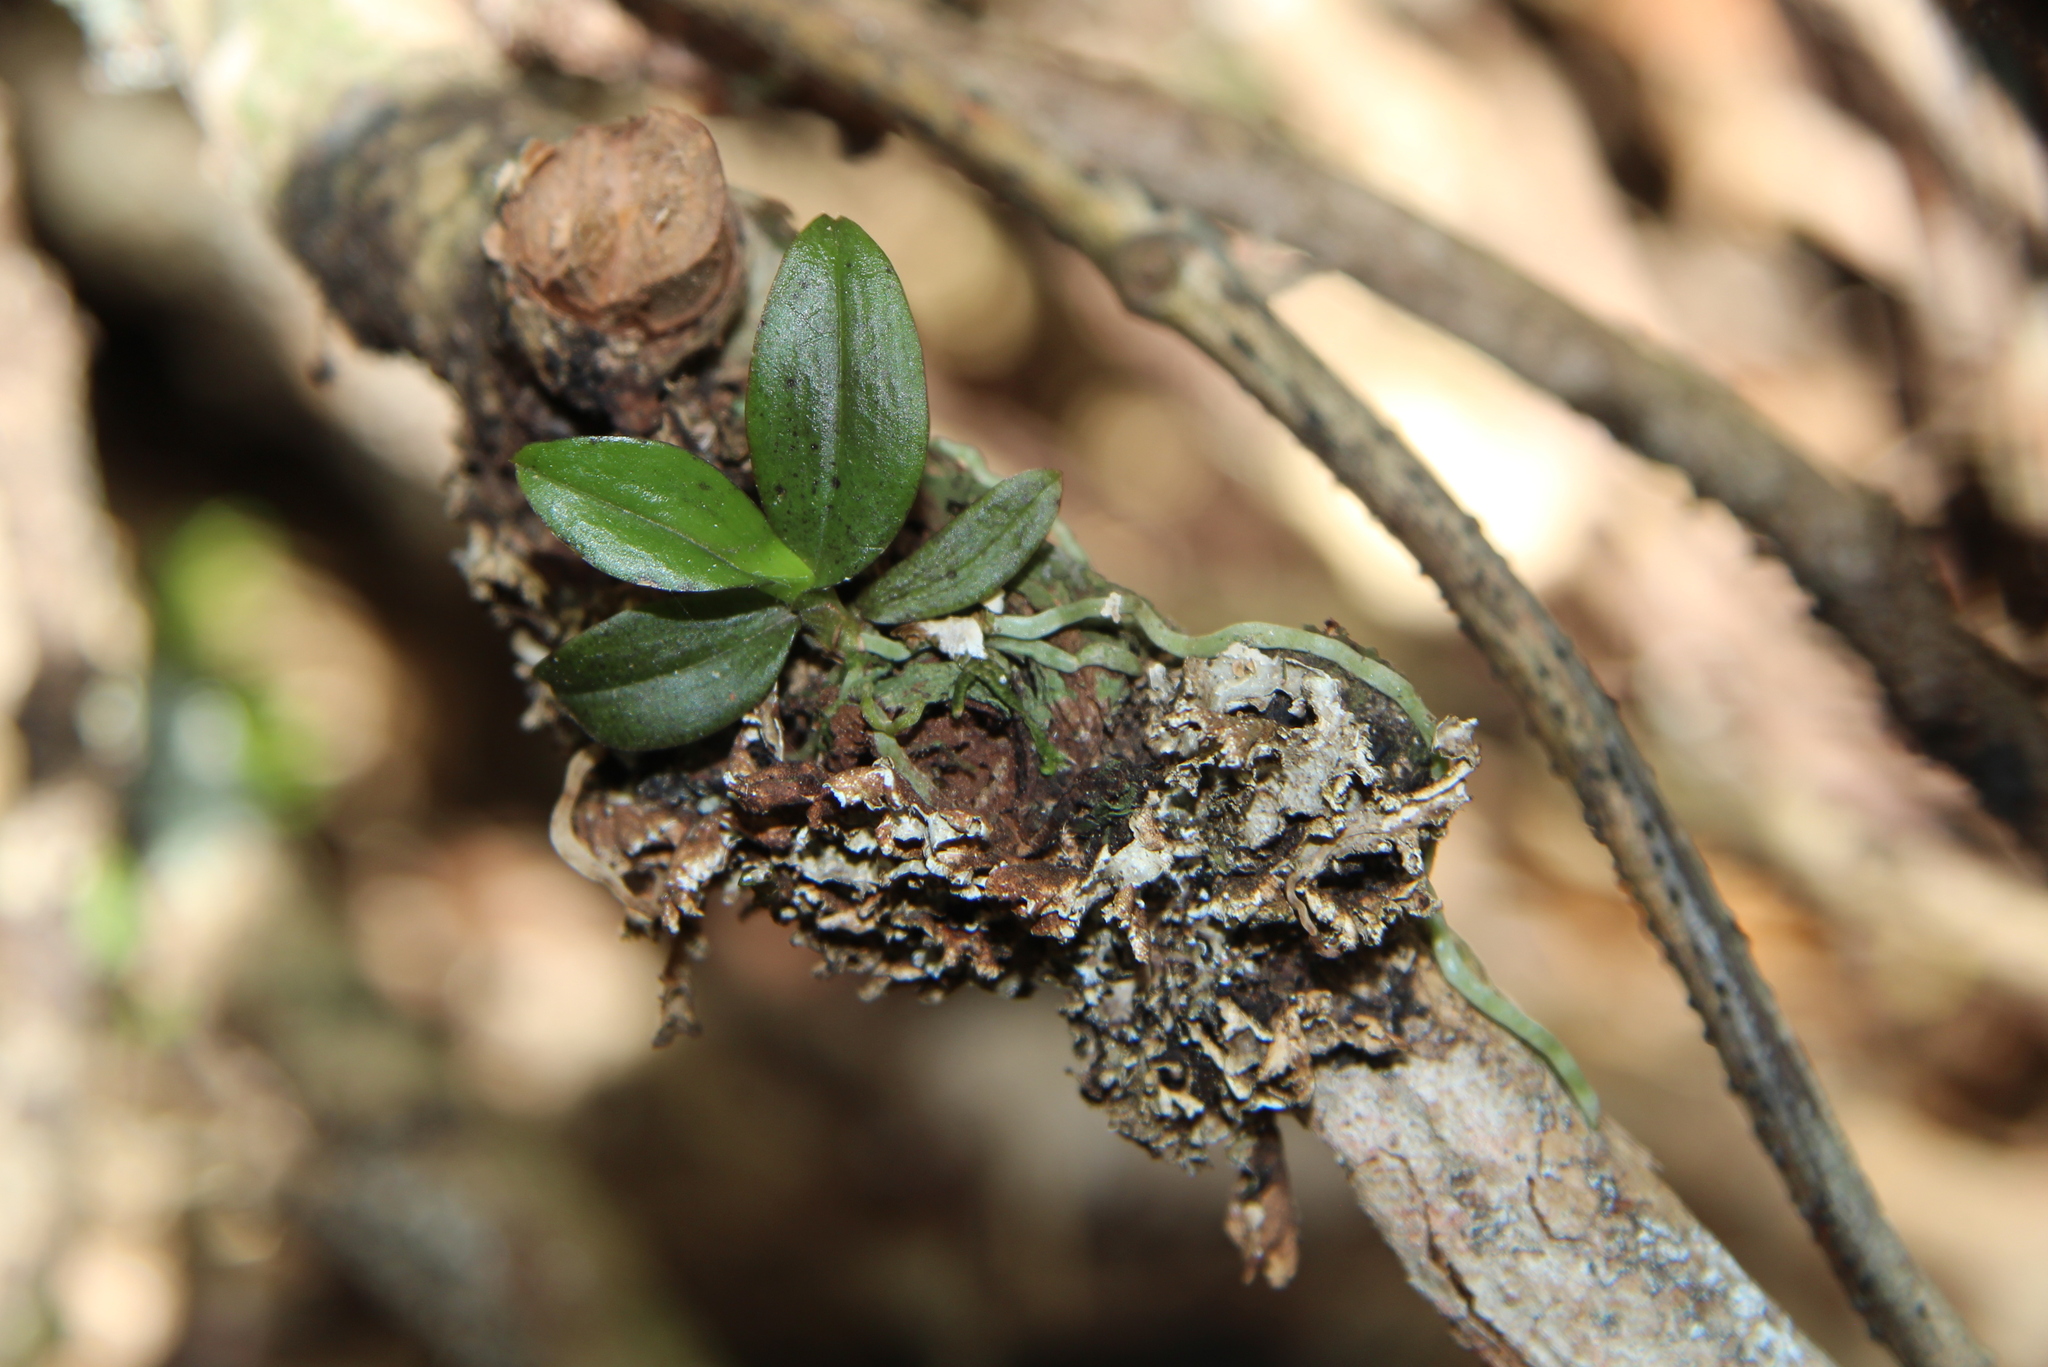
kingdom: Plantae
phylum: Tracheophyta
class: Liliopsida
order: Asparagales
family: Orchidaceae
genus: Drymoanthus
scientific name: Drymoanthus adversus
